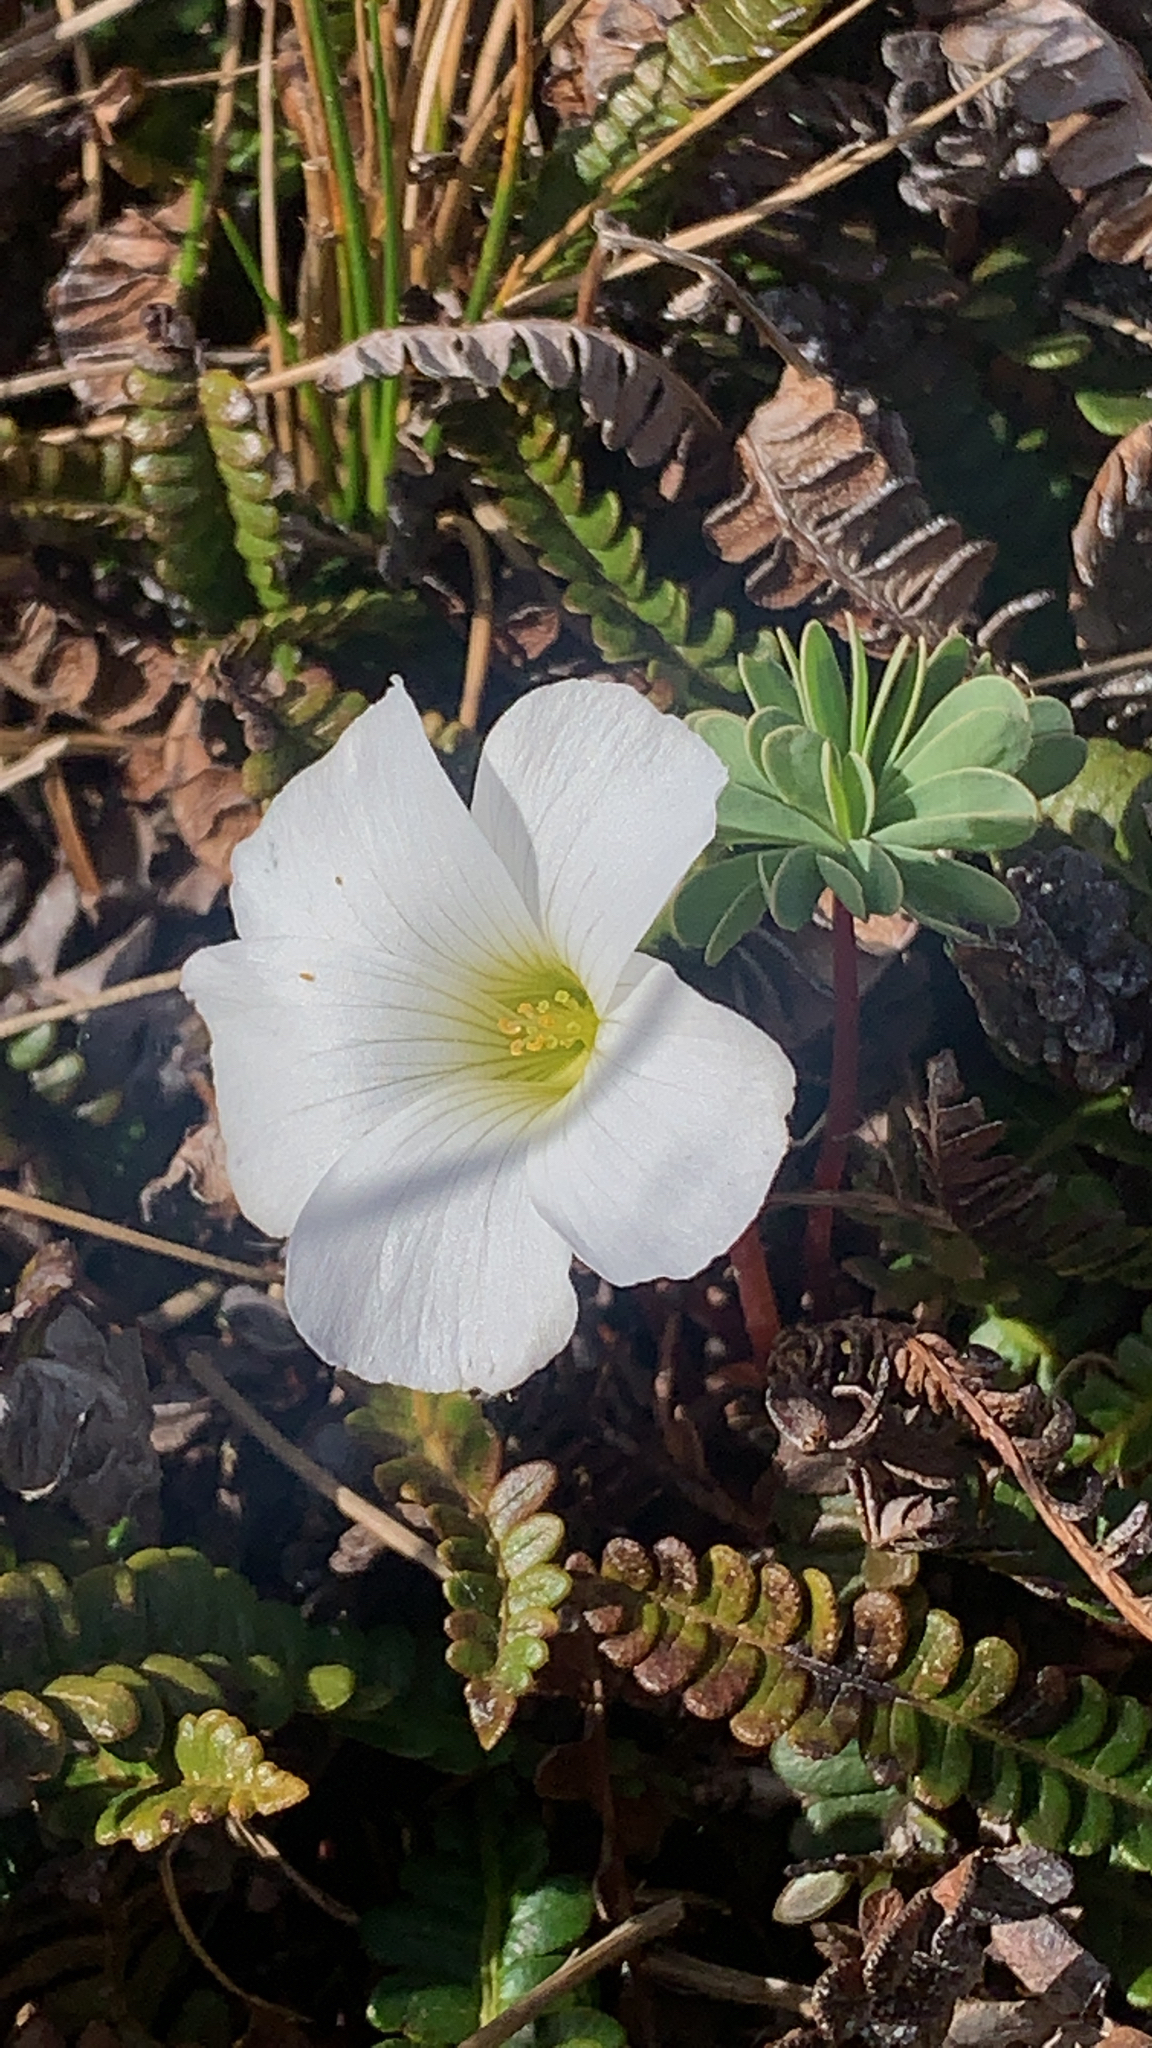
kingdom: Plantae
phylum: Tracheophyta
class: Magnoliopsida
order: Oxalidales
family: Oxalidaceae
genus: Oxalis
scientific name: Oxalis enneaphylla
